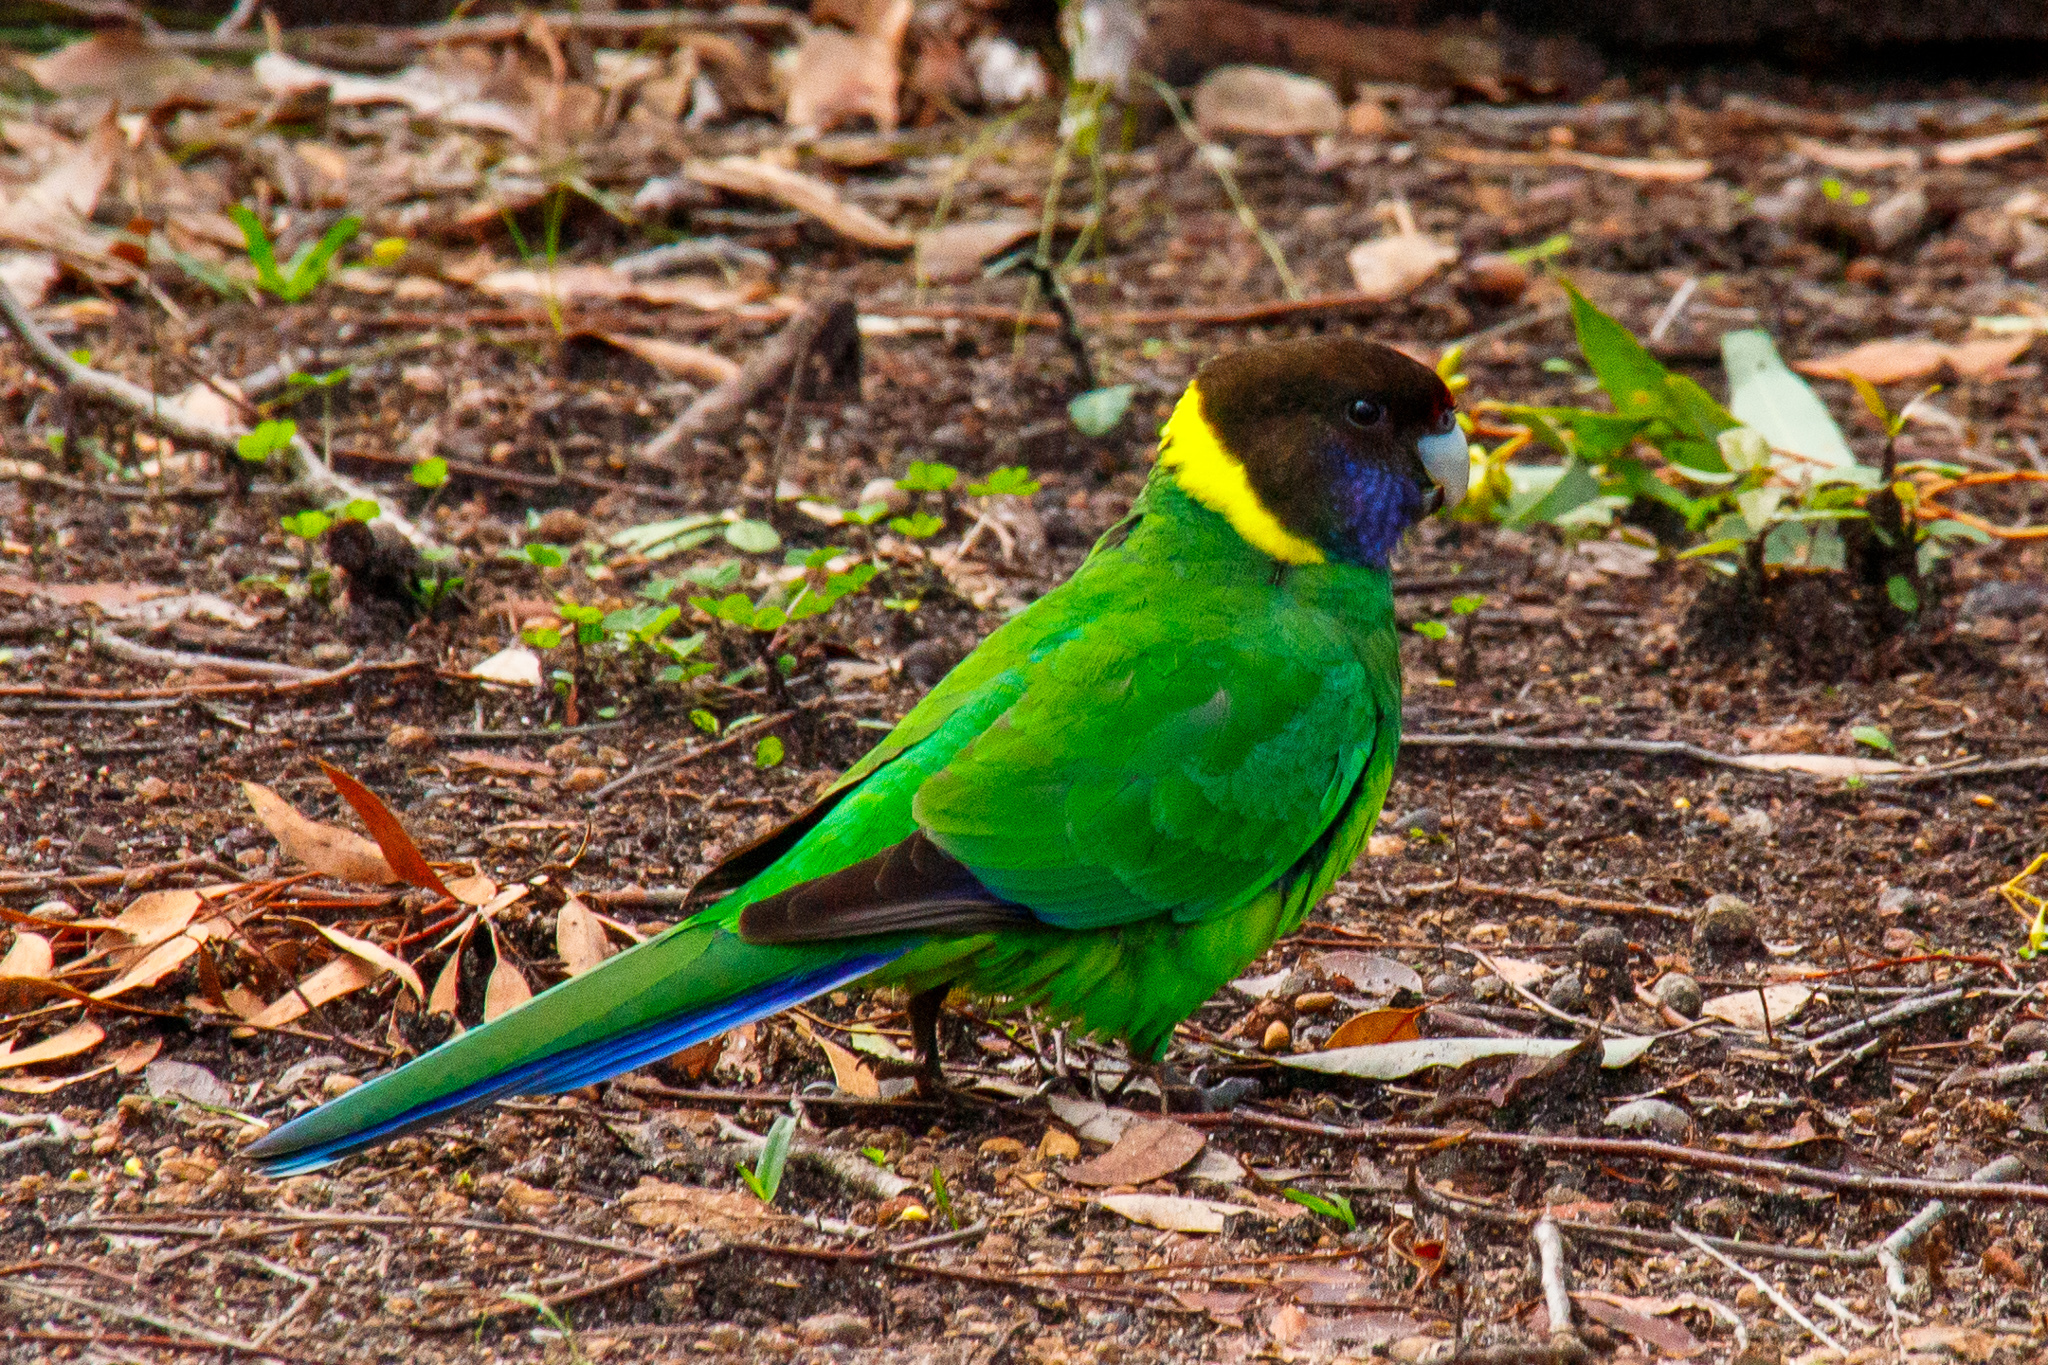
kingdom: Animalia
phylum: Chordata
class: Aves
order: Psittaciformes
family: Psittacidae
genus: Barnardius
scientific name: Barnardius zonarius
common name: Australian ringneck
